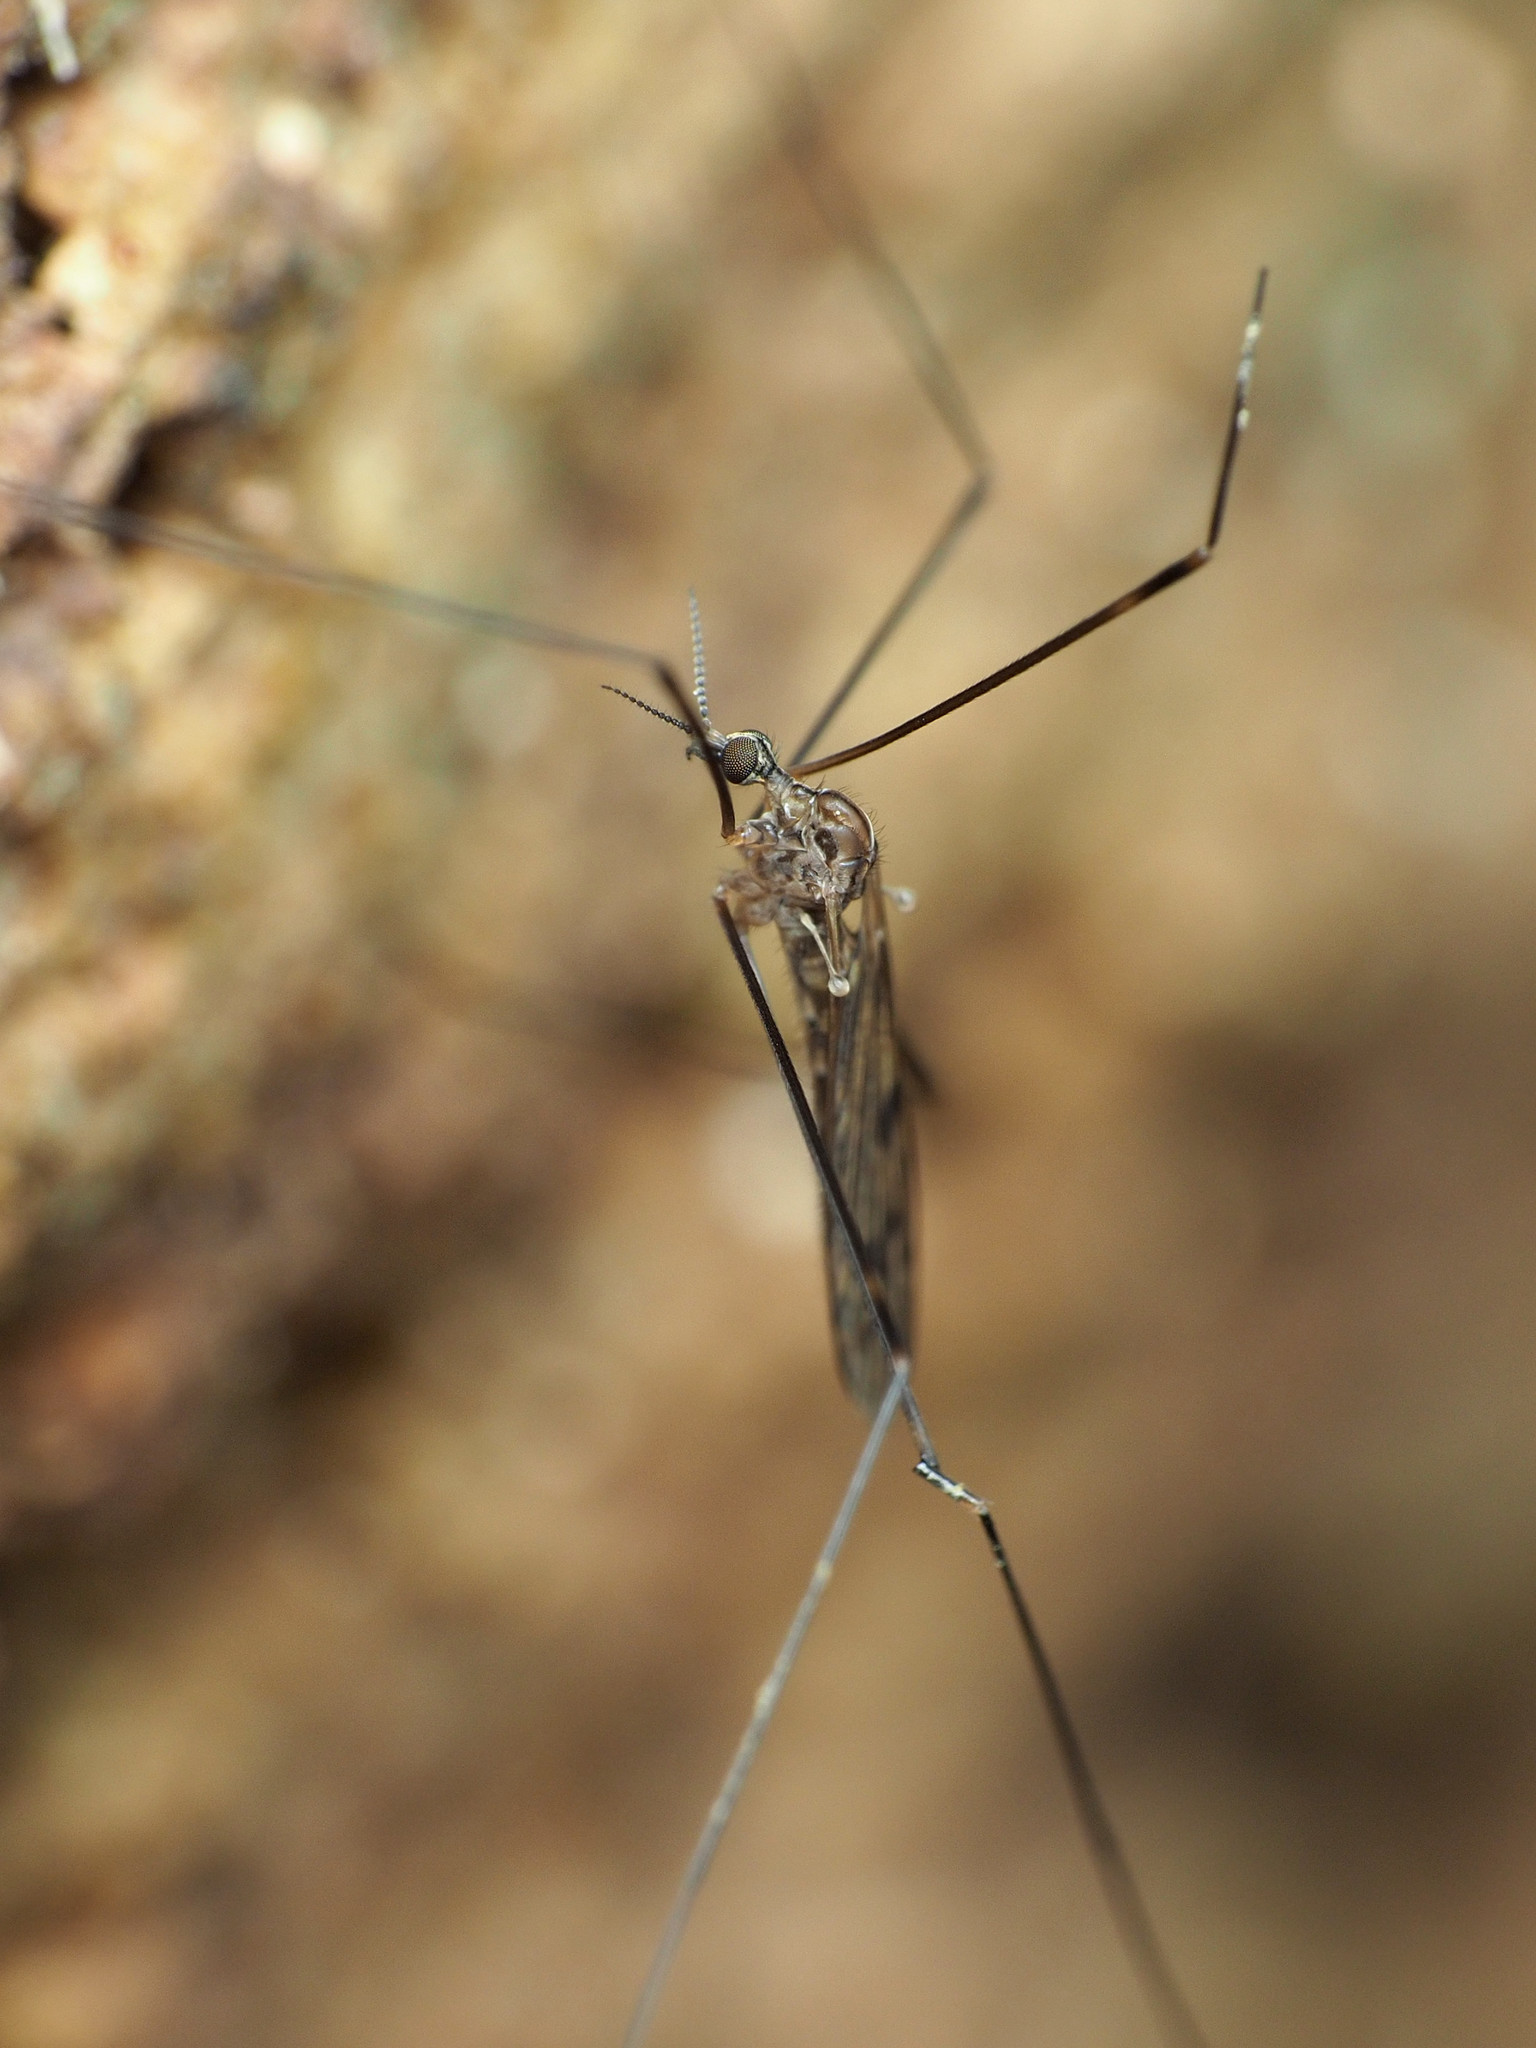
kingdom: Animalia
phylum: Arthropoda
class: Insecta
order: Diptera
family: Limoniidae
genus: Metalimnobia
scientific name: Metalimnobia novaeangliae
